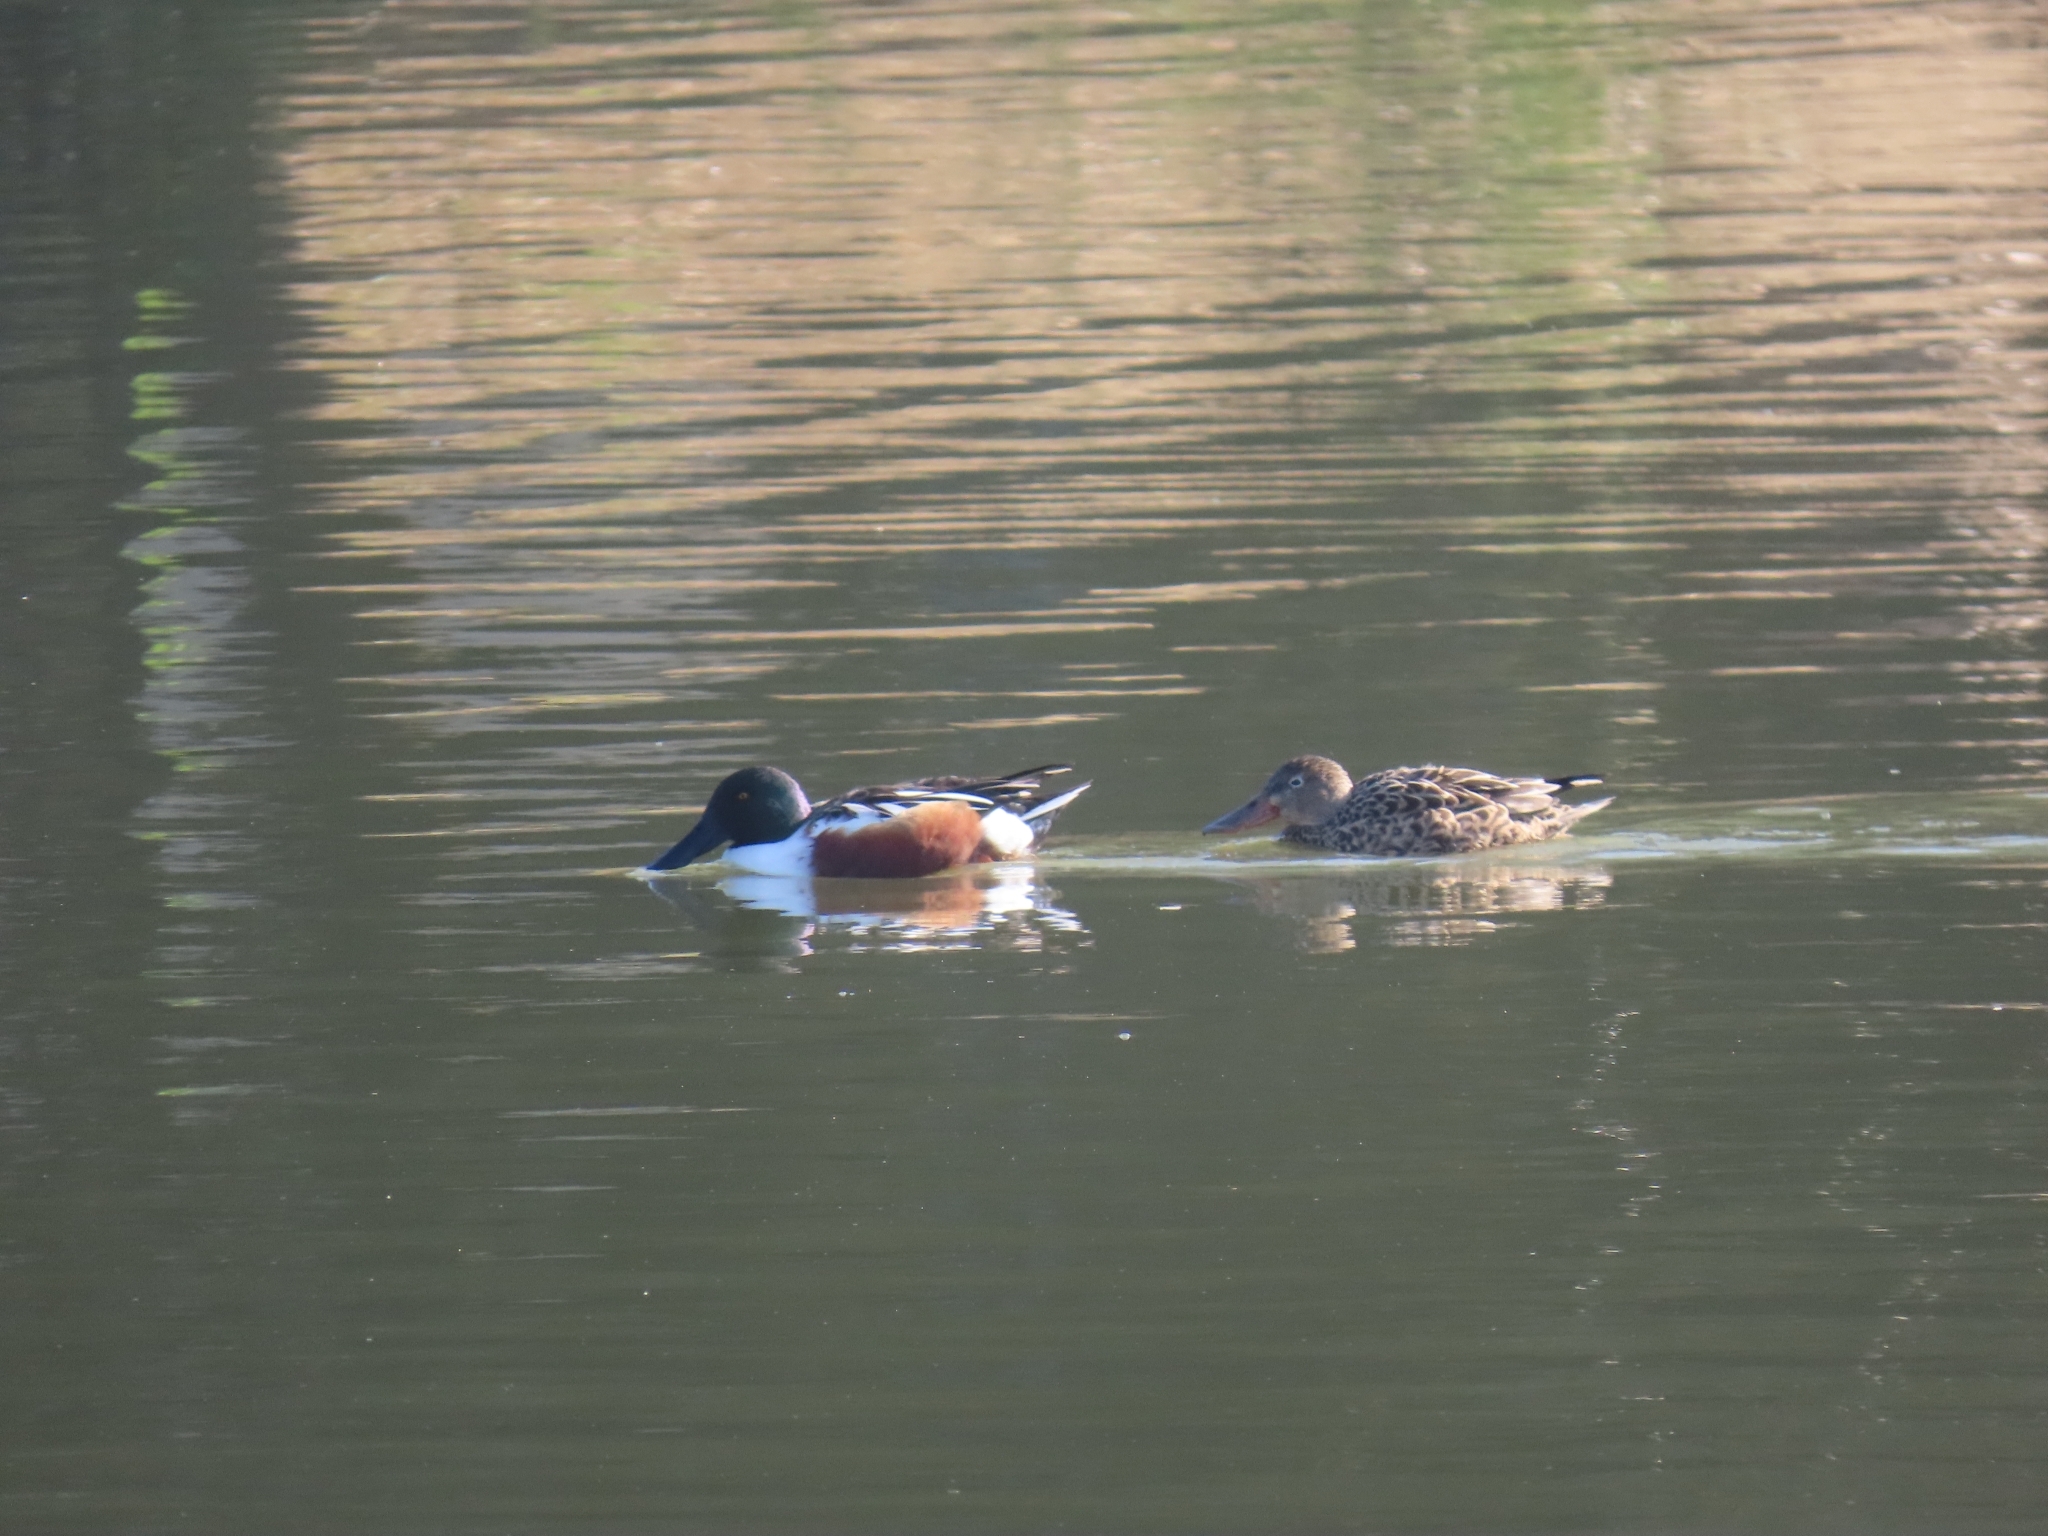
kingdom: Animalia
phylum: Chordata
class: Aves
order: Anseriformes
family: Anatidae
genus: Spatula
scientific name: Spatula clypeata
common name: Northern shoveler
